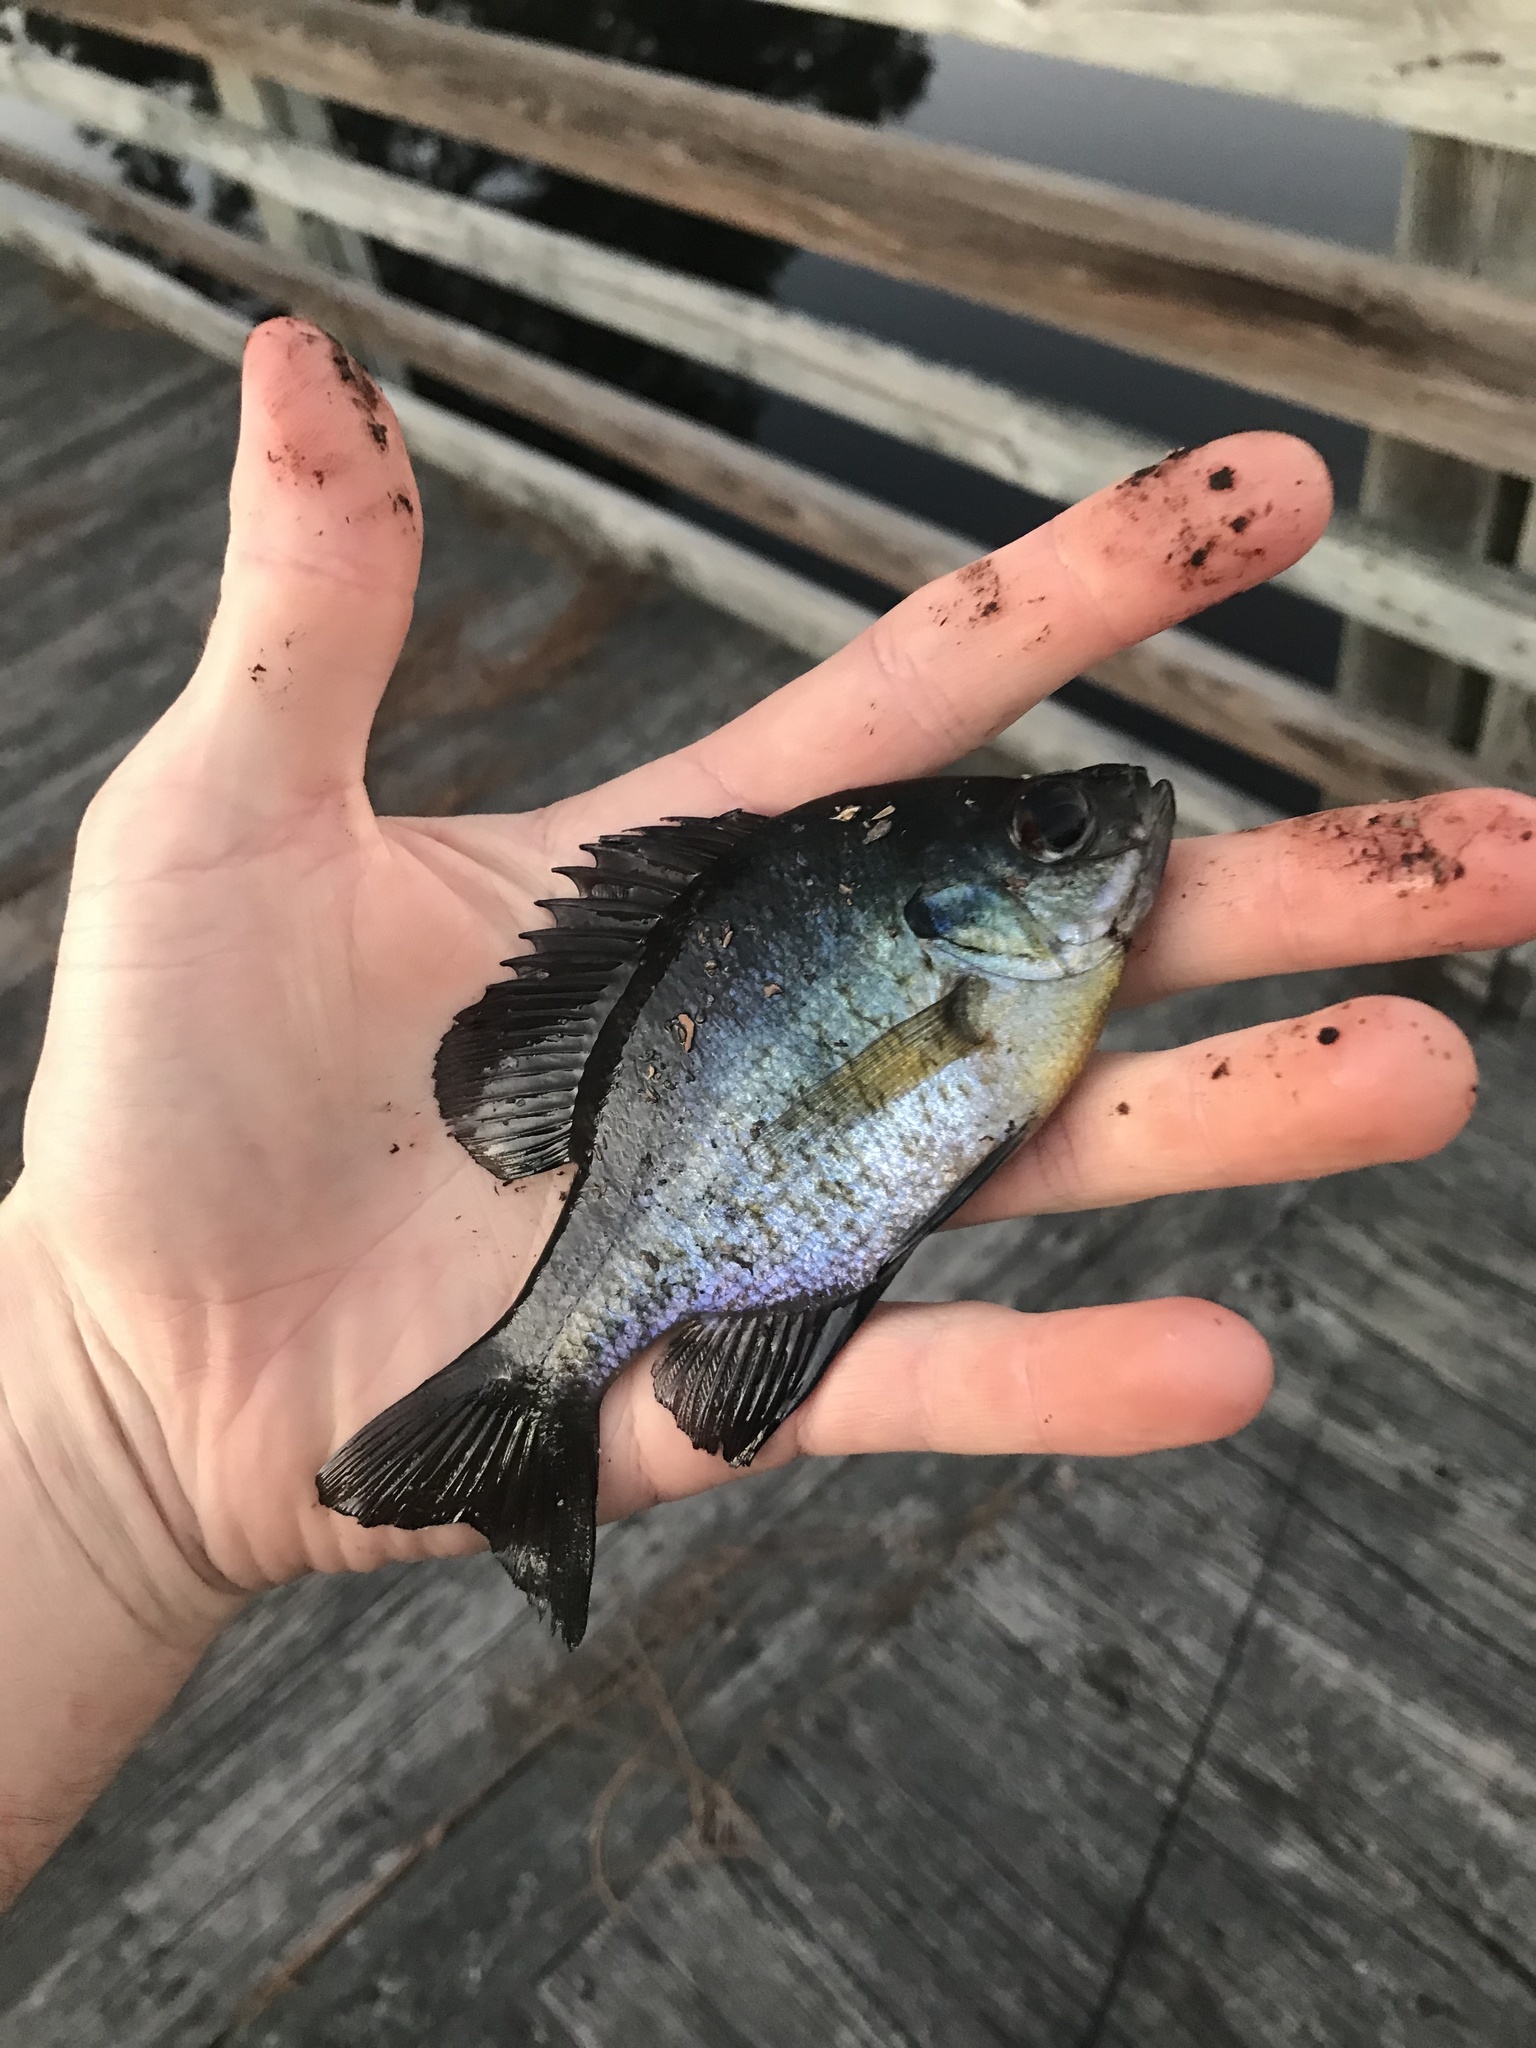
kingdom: Animalia
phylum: Chordata
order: Perciformes
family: Centrarchidae
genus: Lepomis
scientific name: Lepomis macrochirus
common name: Bluegill
